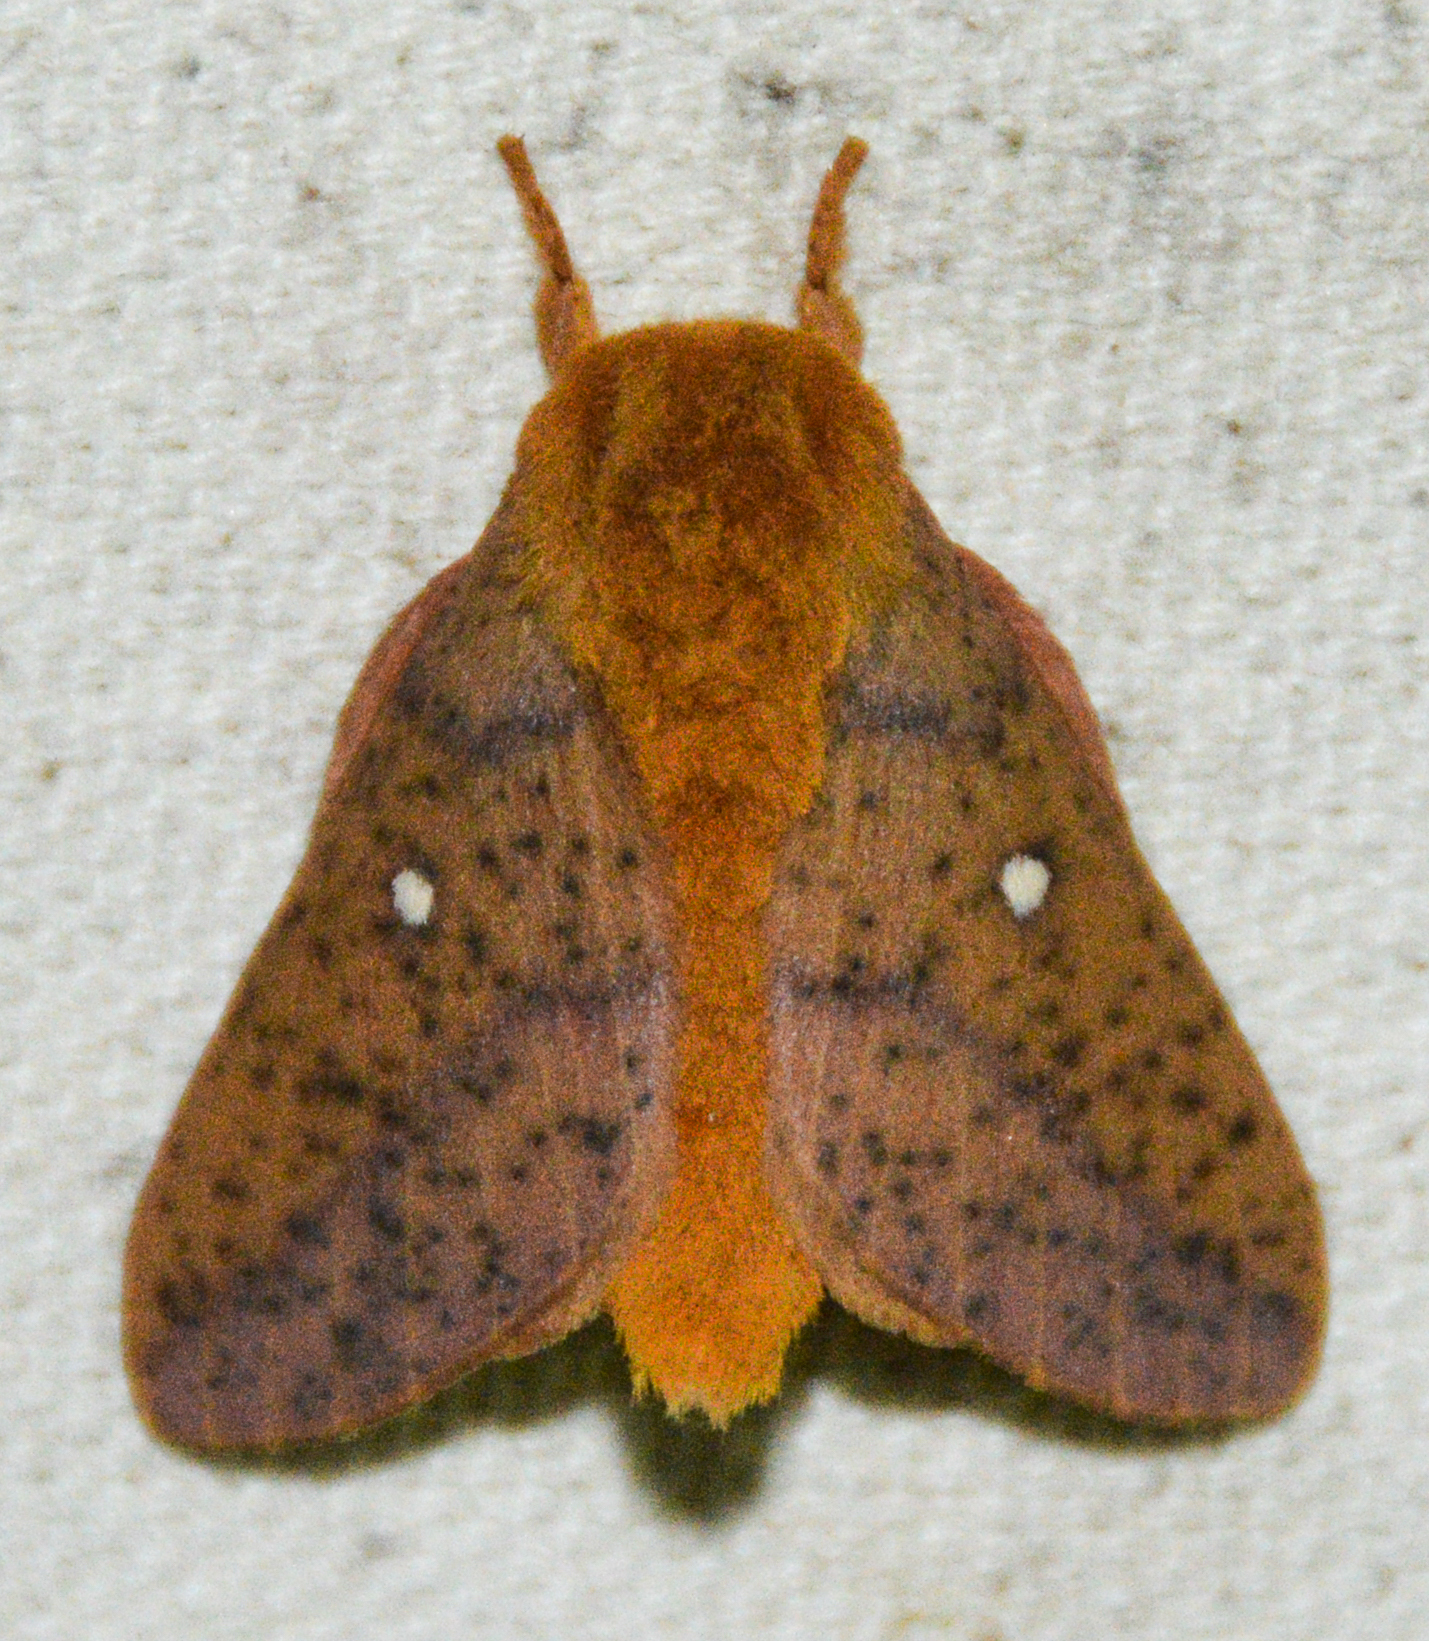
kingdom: Animalia
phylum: Arthropoda
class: Insecta
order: Lepidoptera
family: Saturniidae
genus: Anisota
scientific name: Anisota stigma
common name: Spiny oakworm moth
